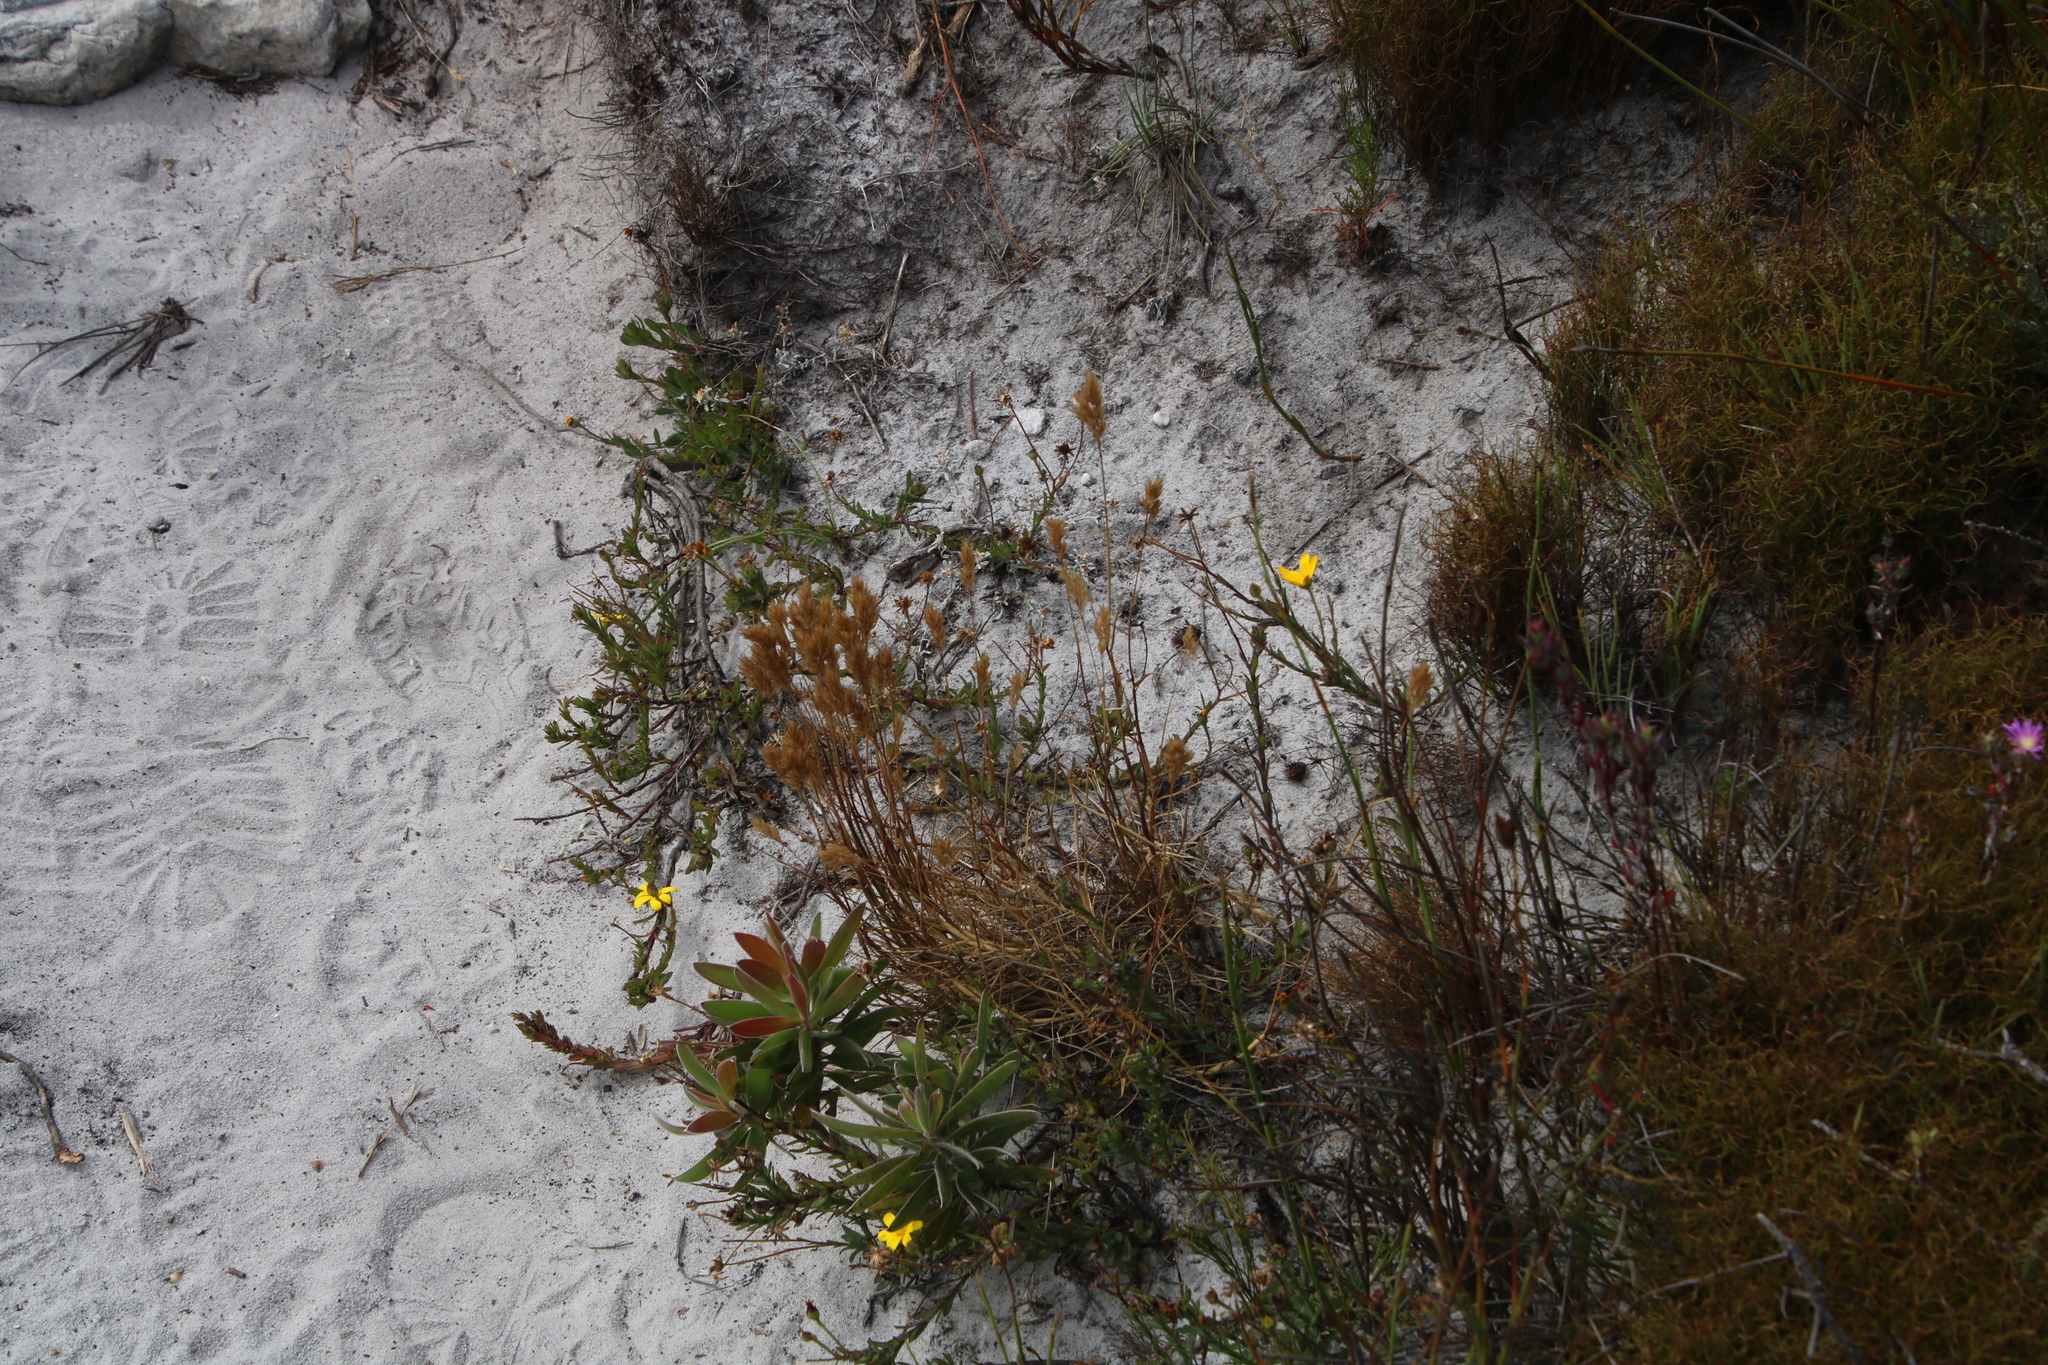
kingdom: Plantae
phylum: Tracheophyta
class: Magnoliopsida
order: Asterales
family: Asteraceae
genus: Osteospermum
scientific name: Osteospermum polygaloides
